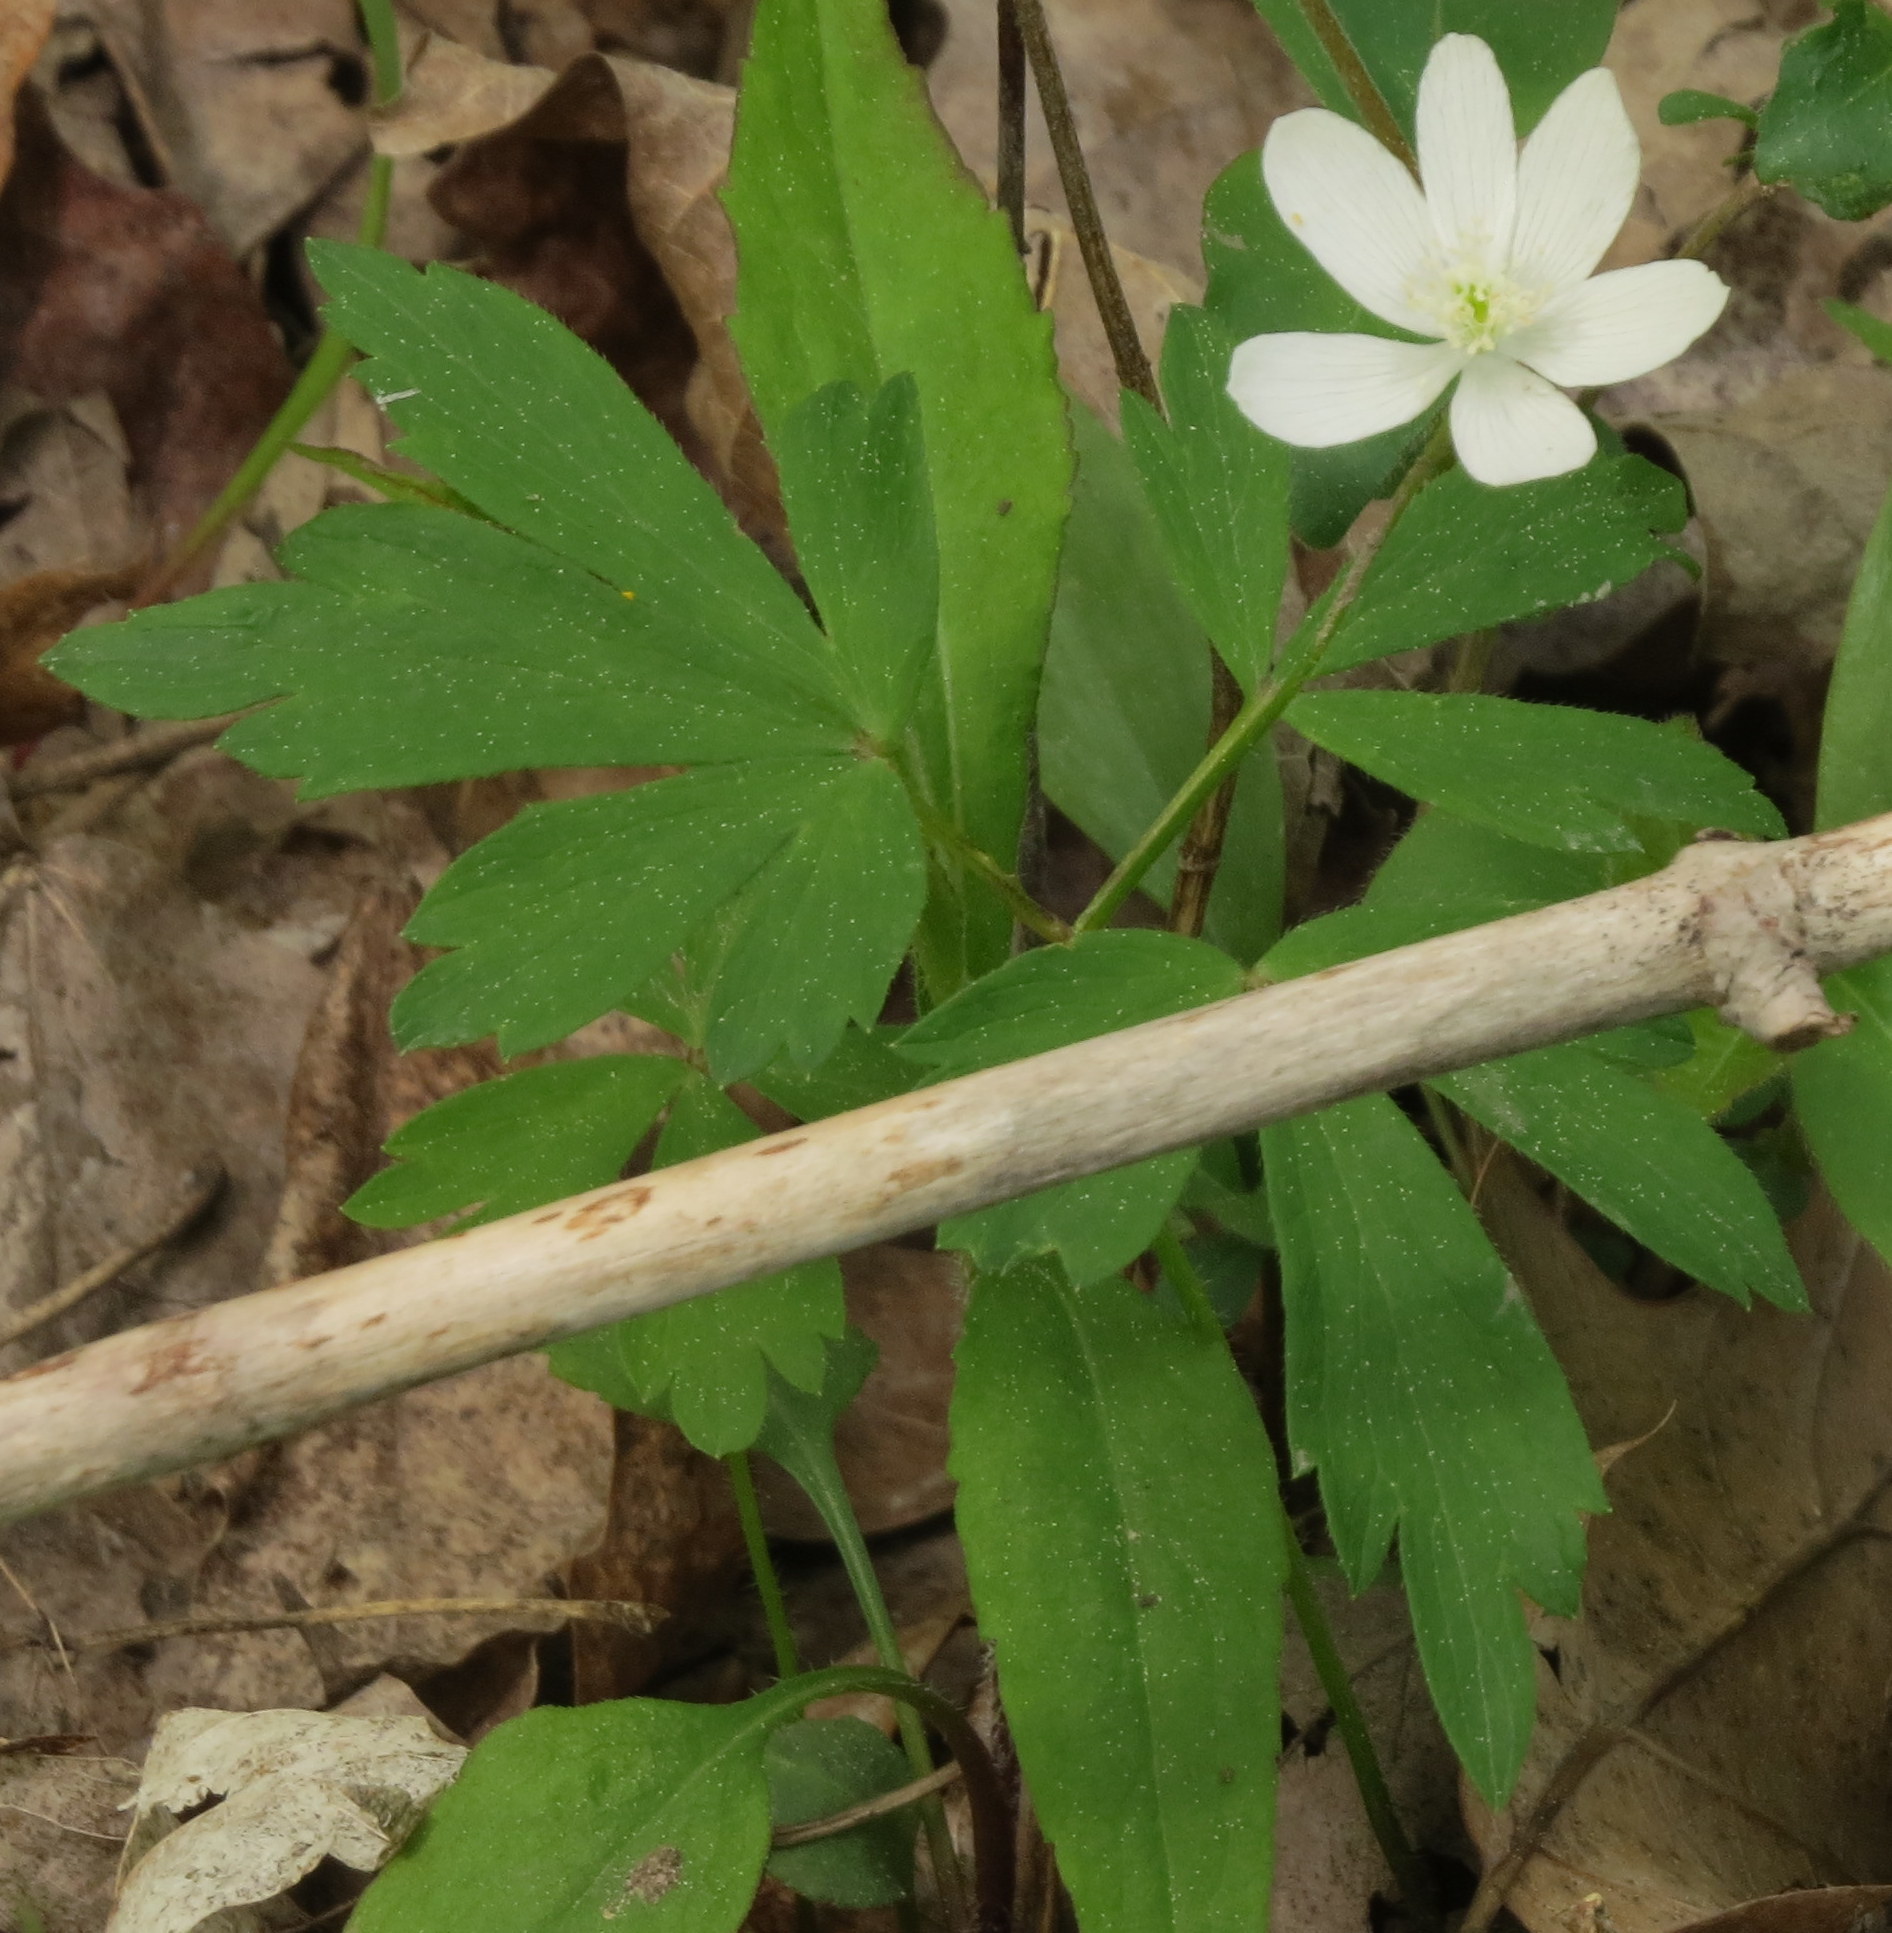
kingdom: Plantae
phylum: Tracheophyta
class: Magnoliopsida
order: Ranunculales
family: Ranunculaceae
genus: Anemone
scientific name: Anemone quinquefolia
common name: Wood anemone
